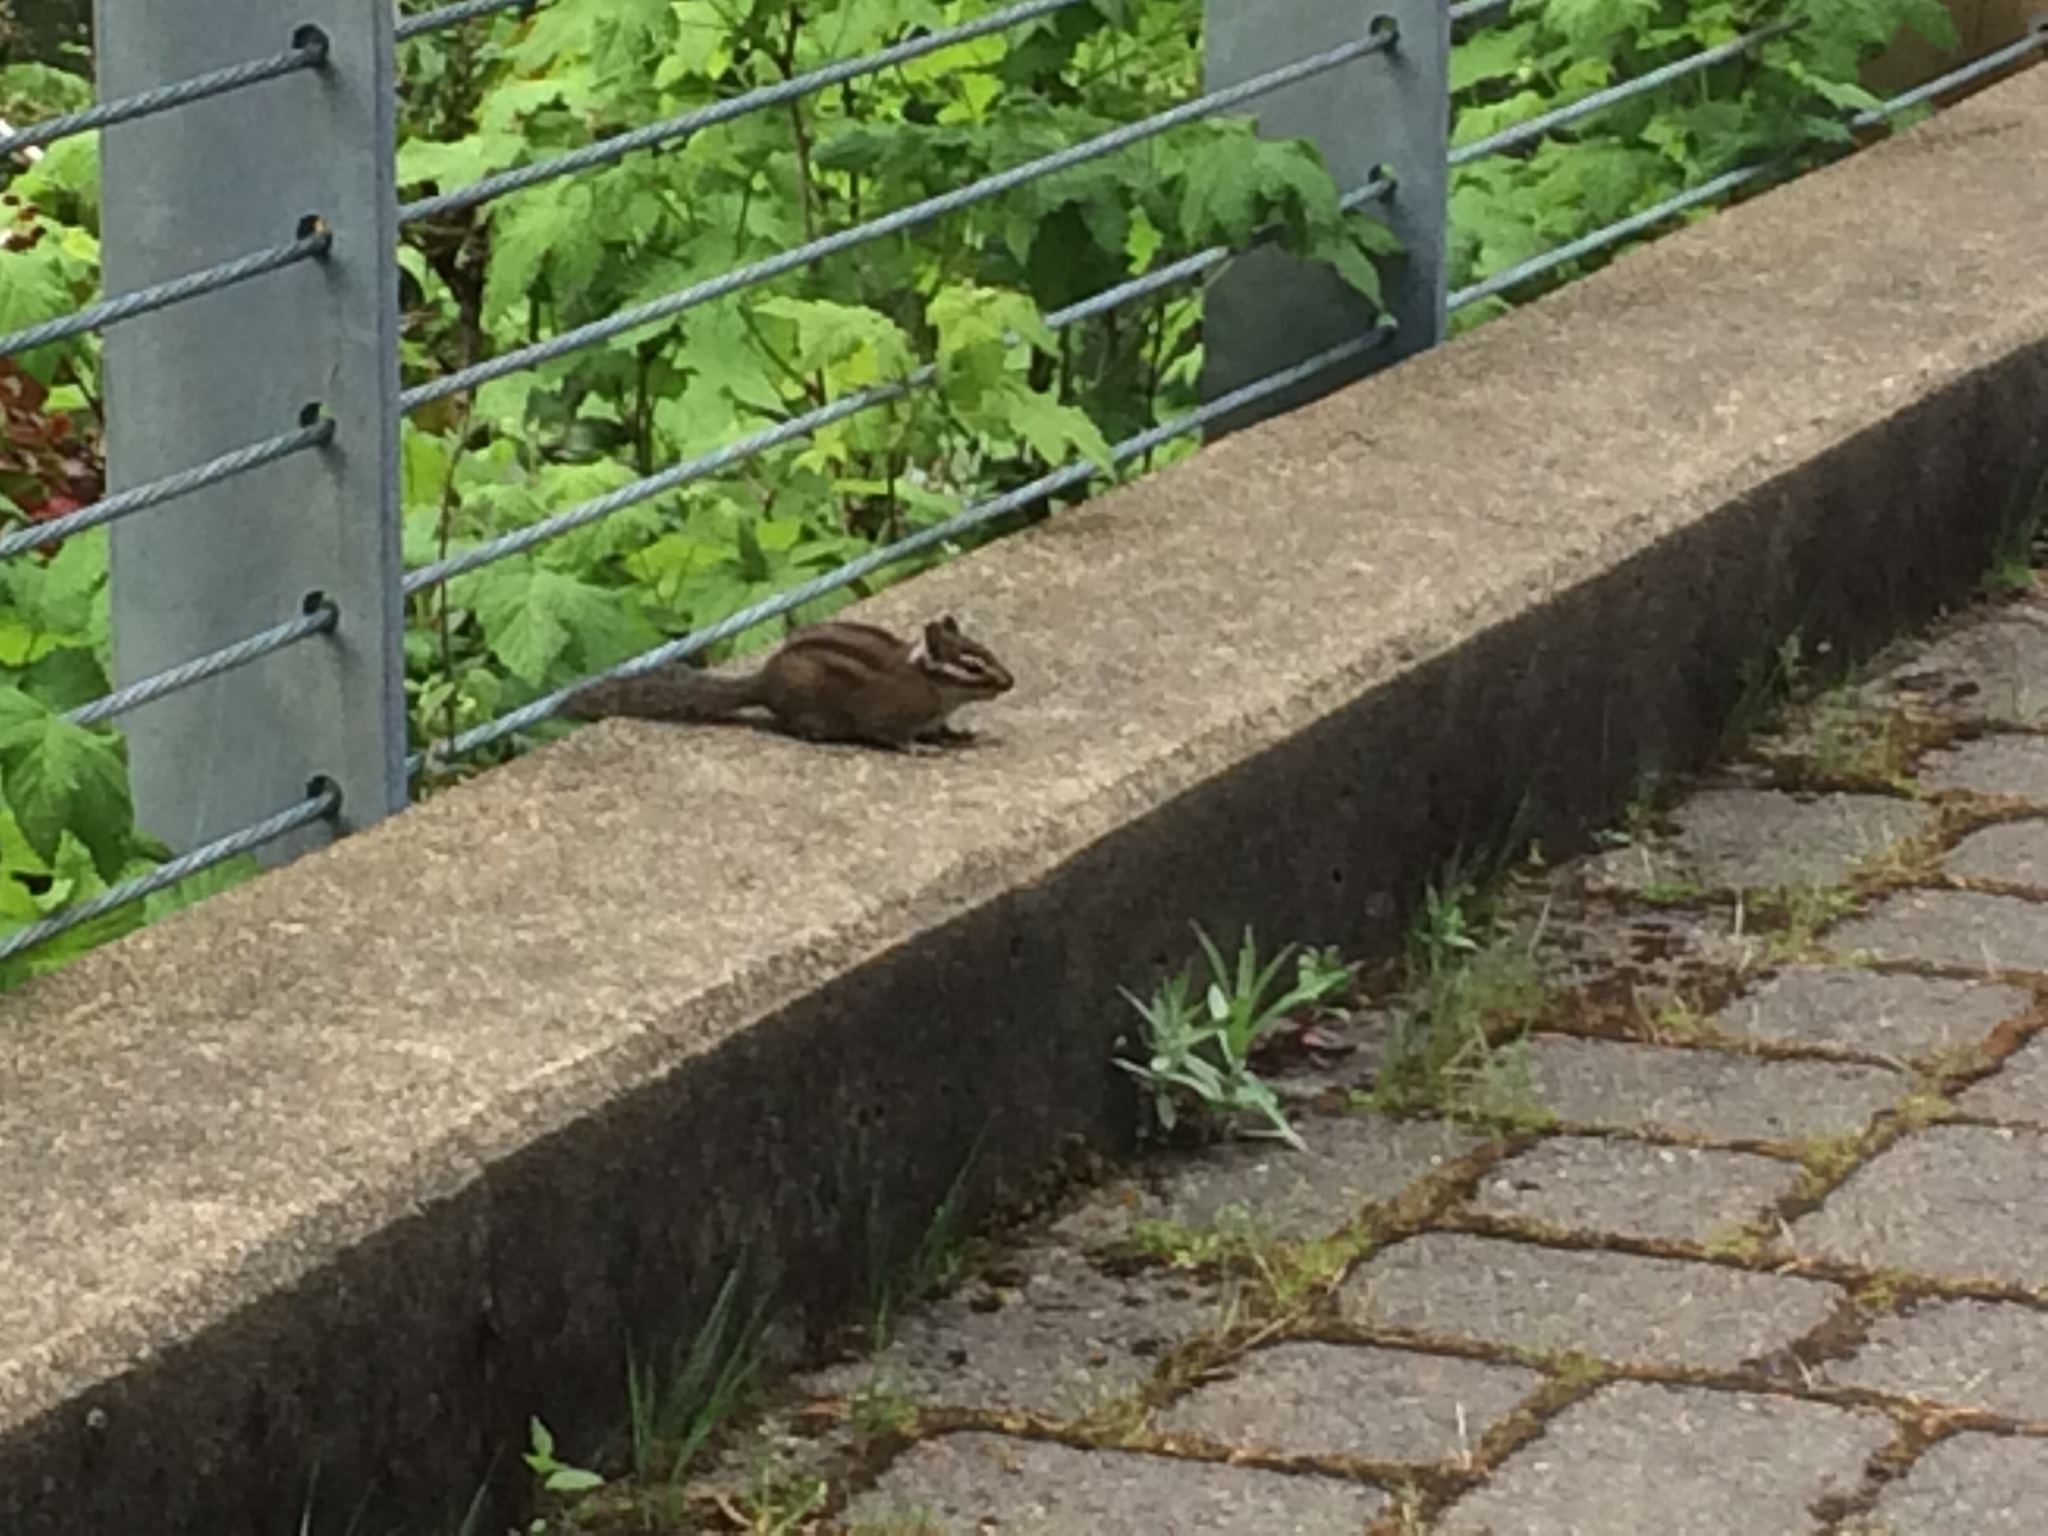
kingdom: Animalia
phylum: Chordata
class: Mammalia
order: Rodentia
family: Sciuridae
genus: Tamias
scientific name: Tamias townsendii
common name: Townsend's chipmunk
